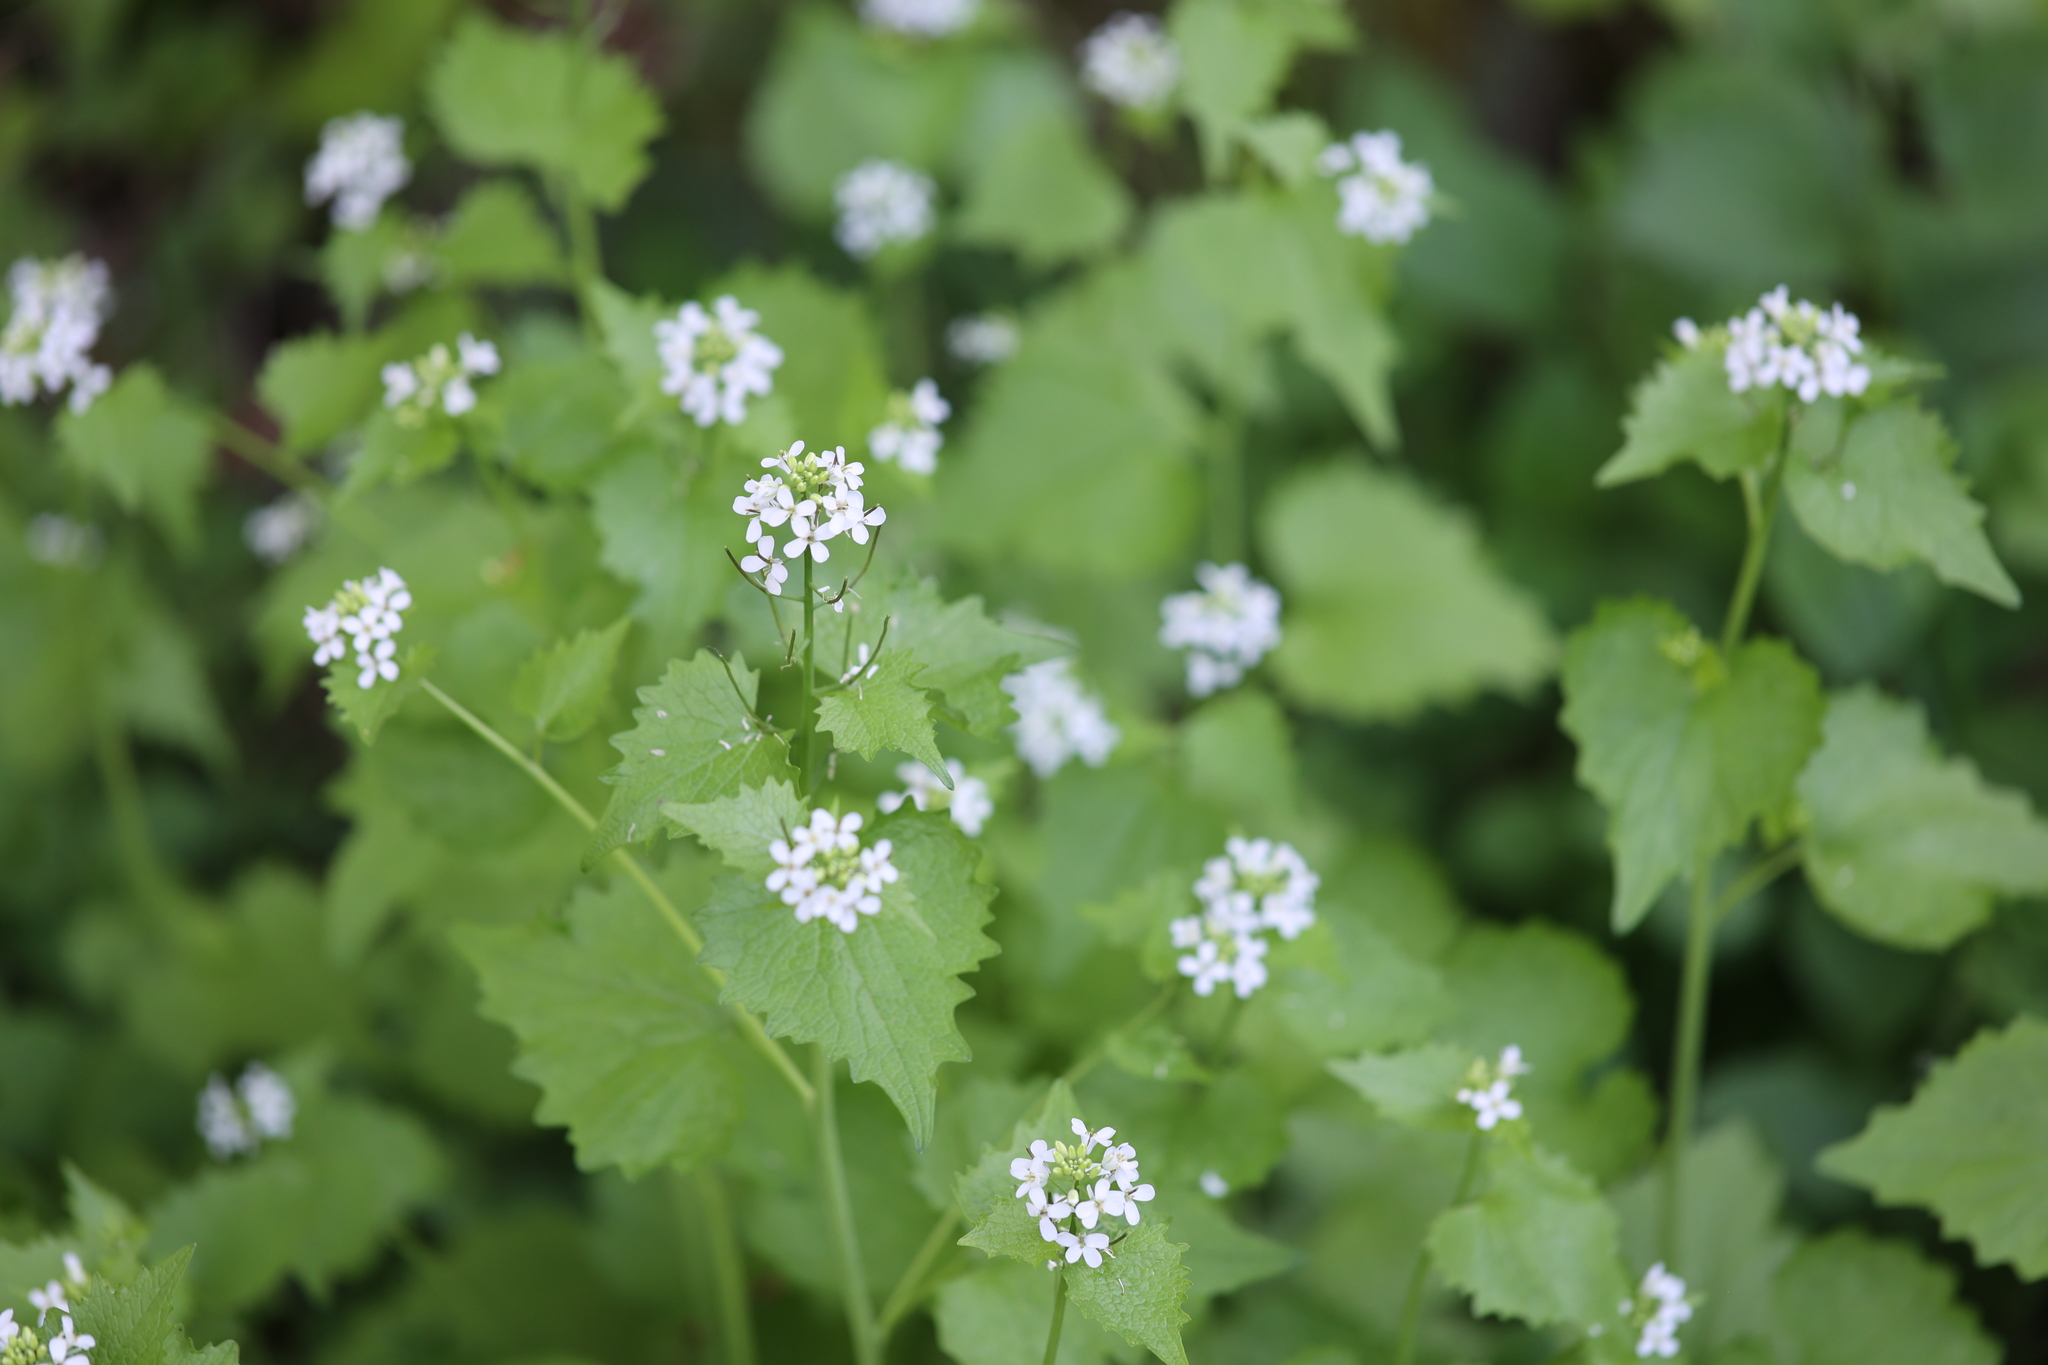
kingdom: Plantae
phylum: Tracheophyta
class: Magnoliopsida
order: Brassicales
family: Brassicaceae
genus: Alliaria
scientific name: Alliaria petiolata
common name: Garlic mustard
